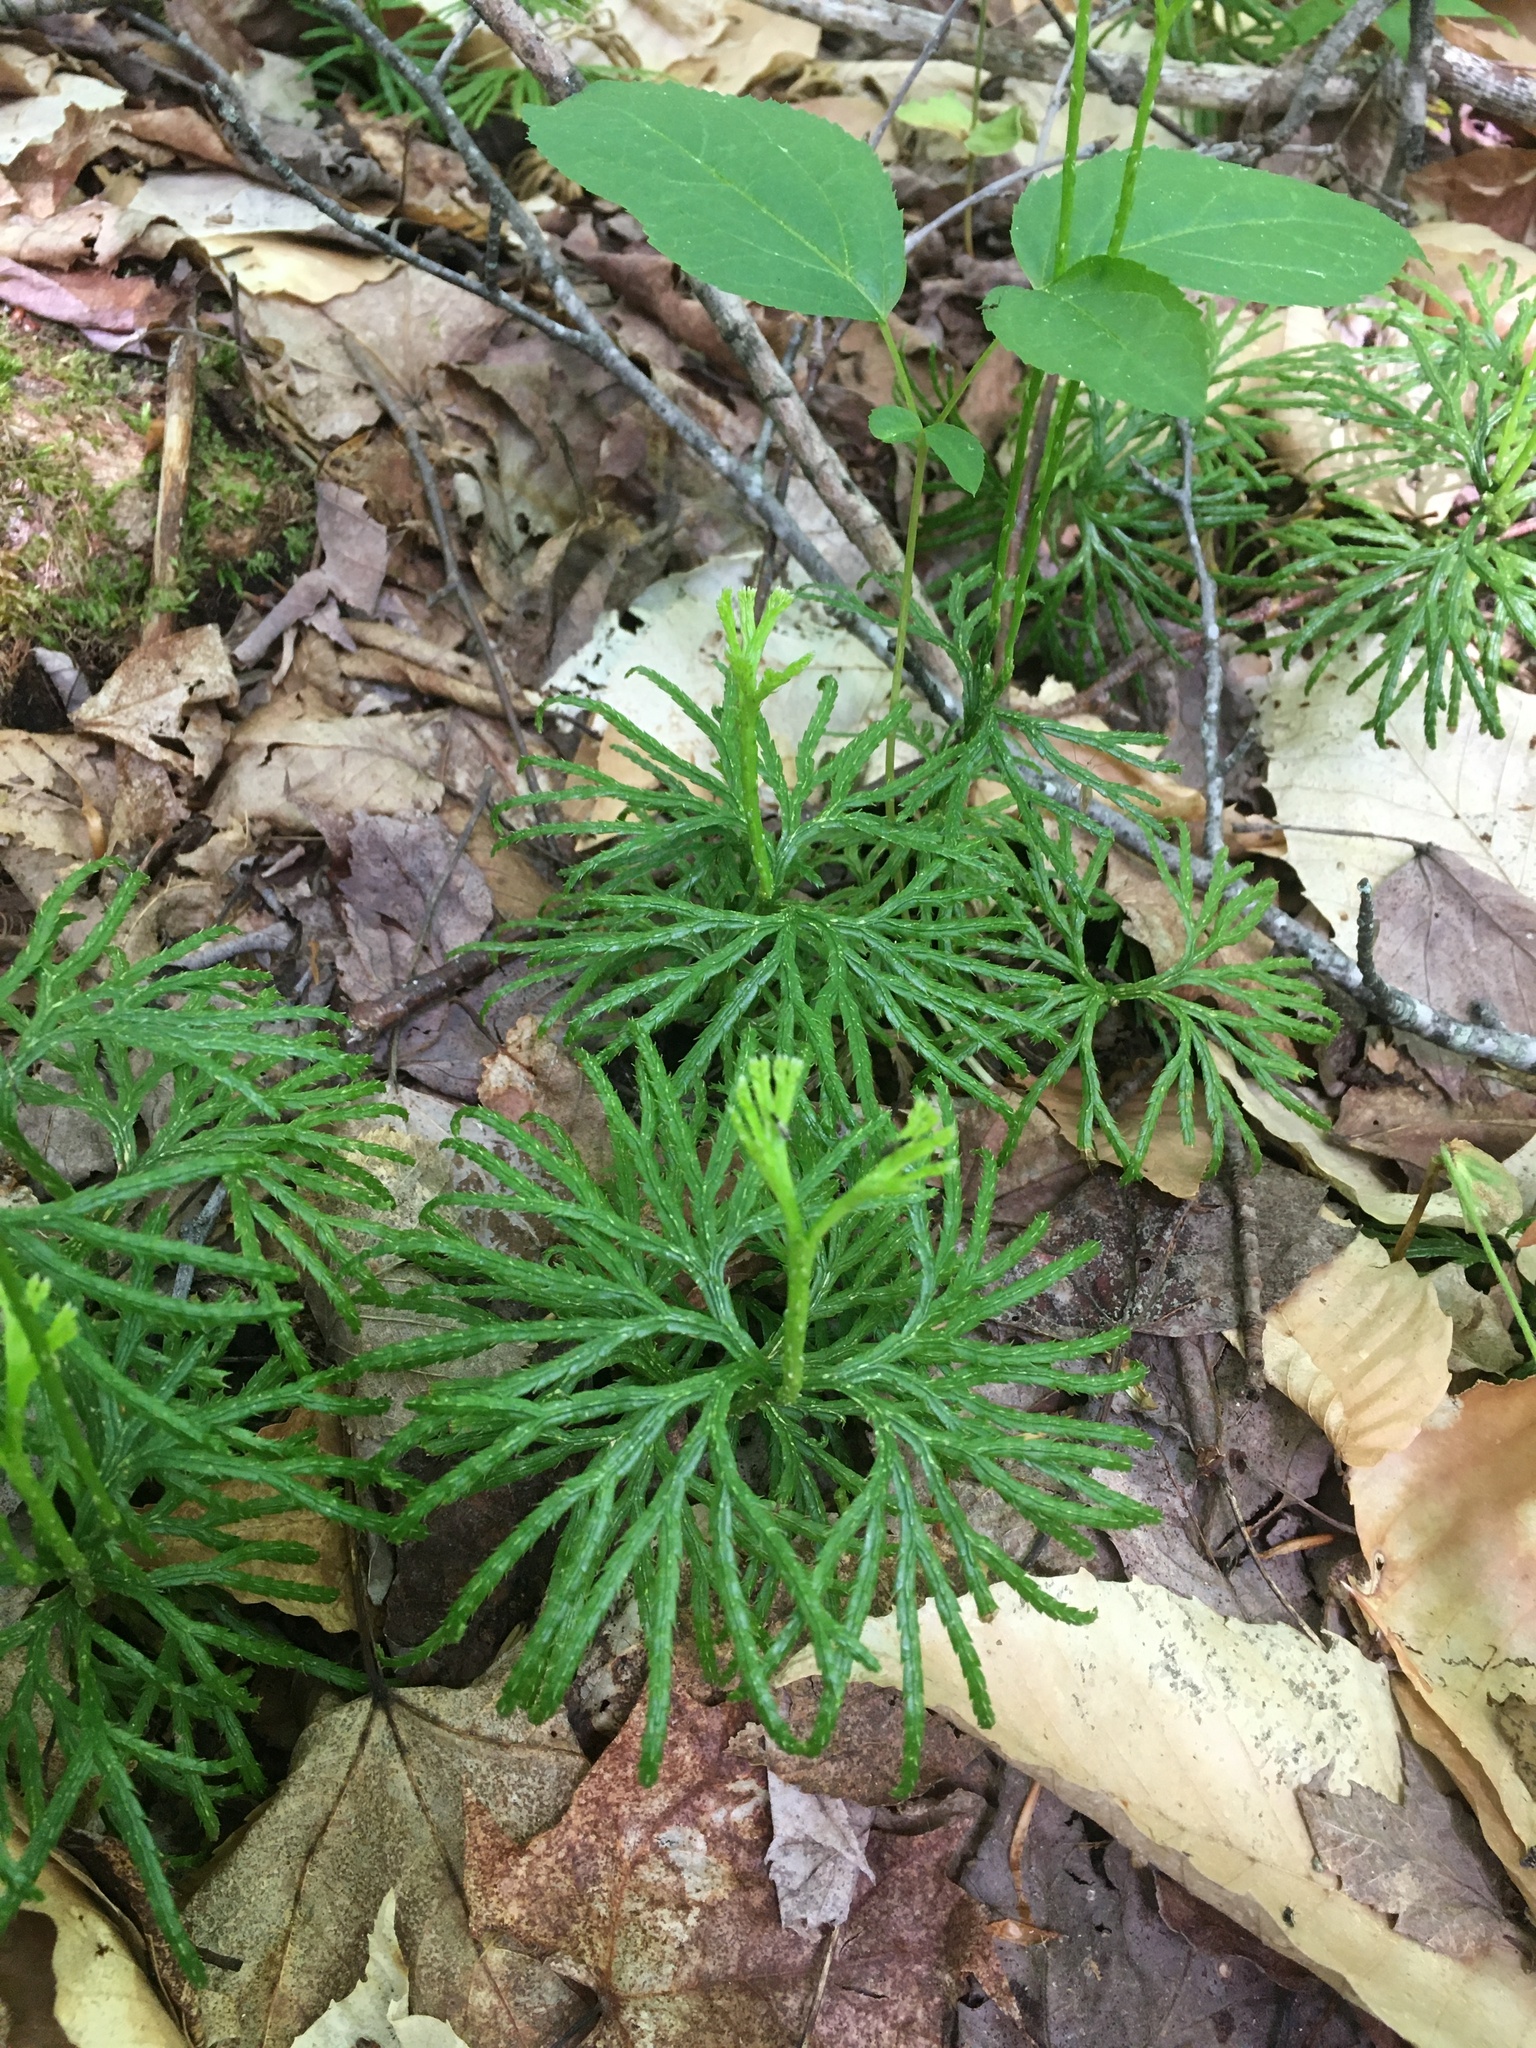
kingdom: Plantae
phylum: Tracheophyta
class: Lycopodiopsida
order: Lycopodiales
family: Lycopodiaceae
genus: Diphasiastrum
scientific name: Diphasiastrum digitatum
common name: Southern running-pine
